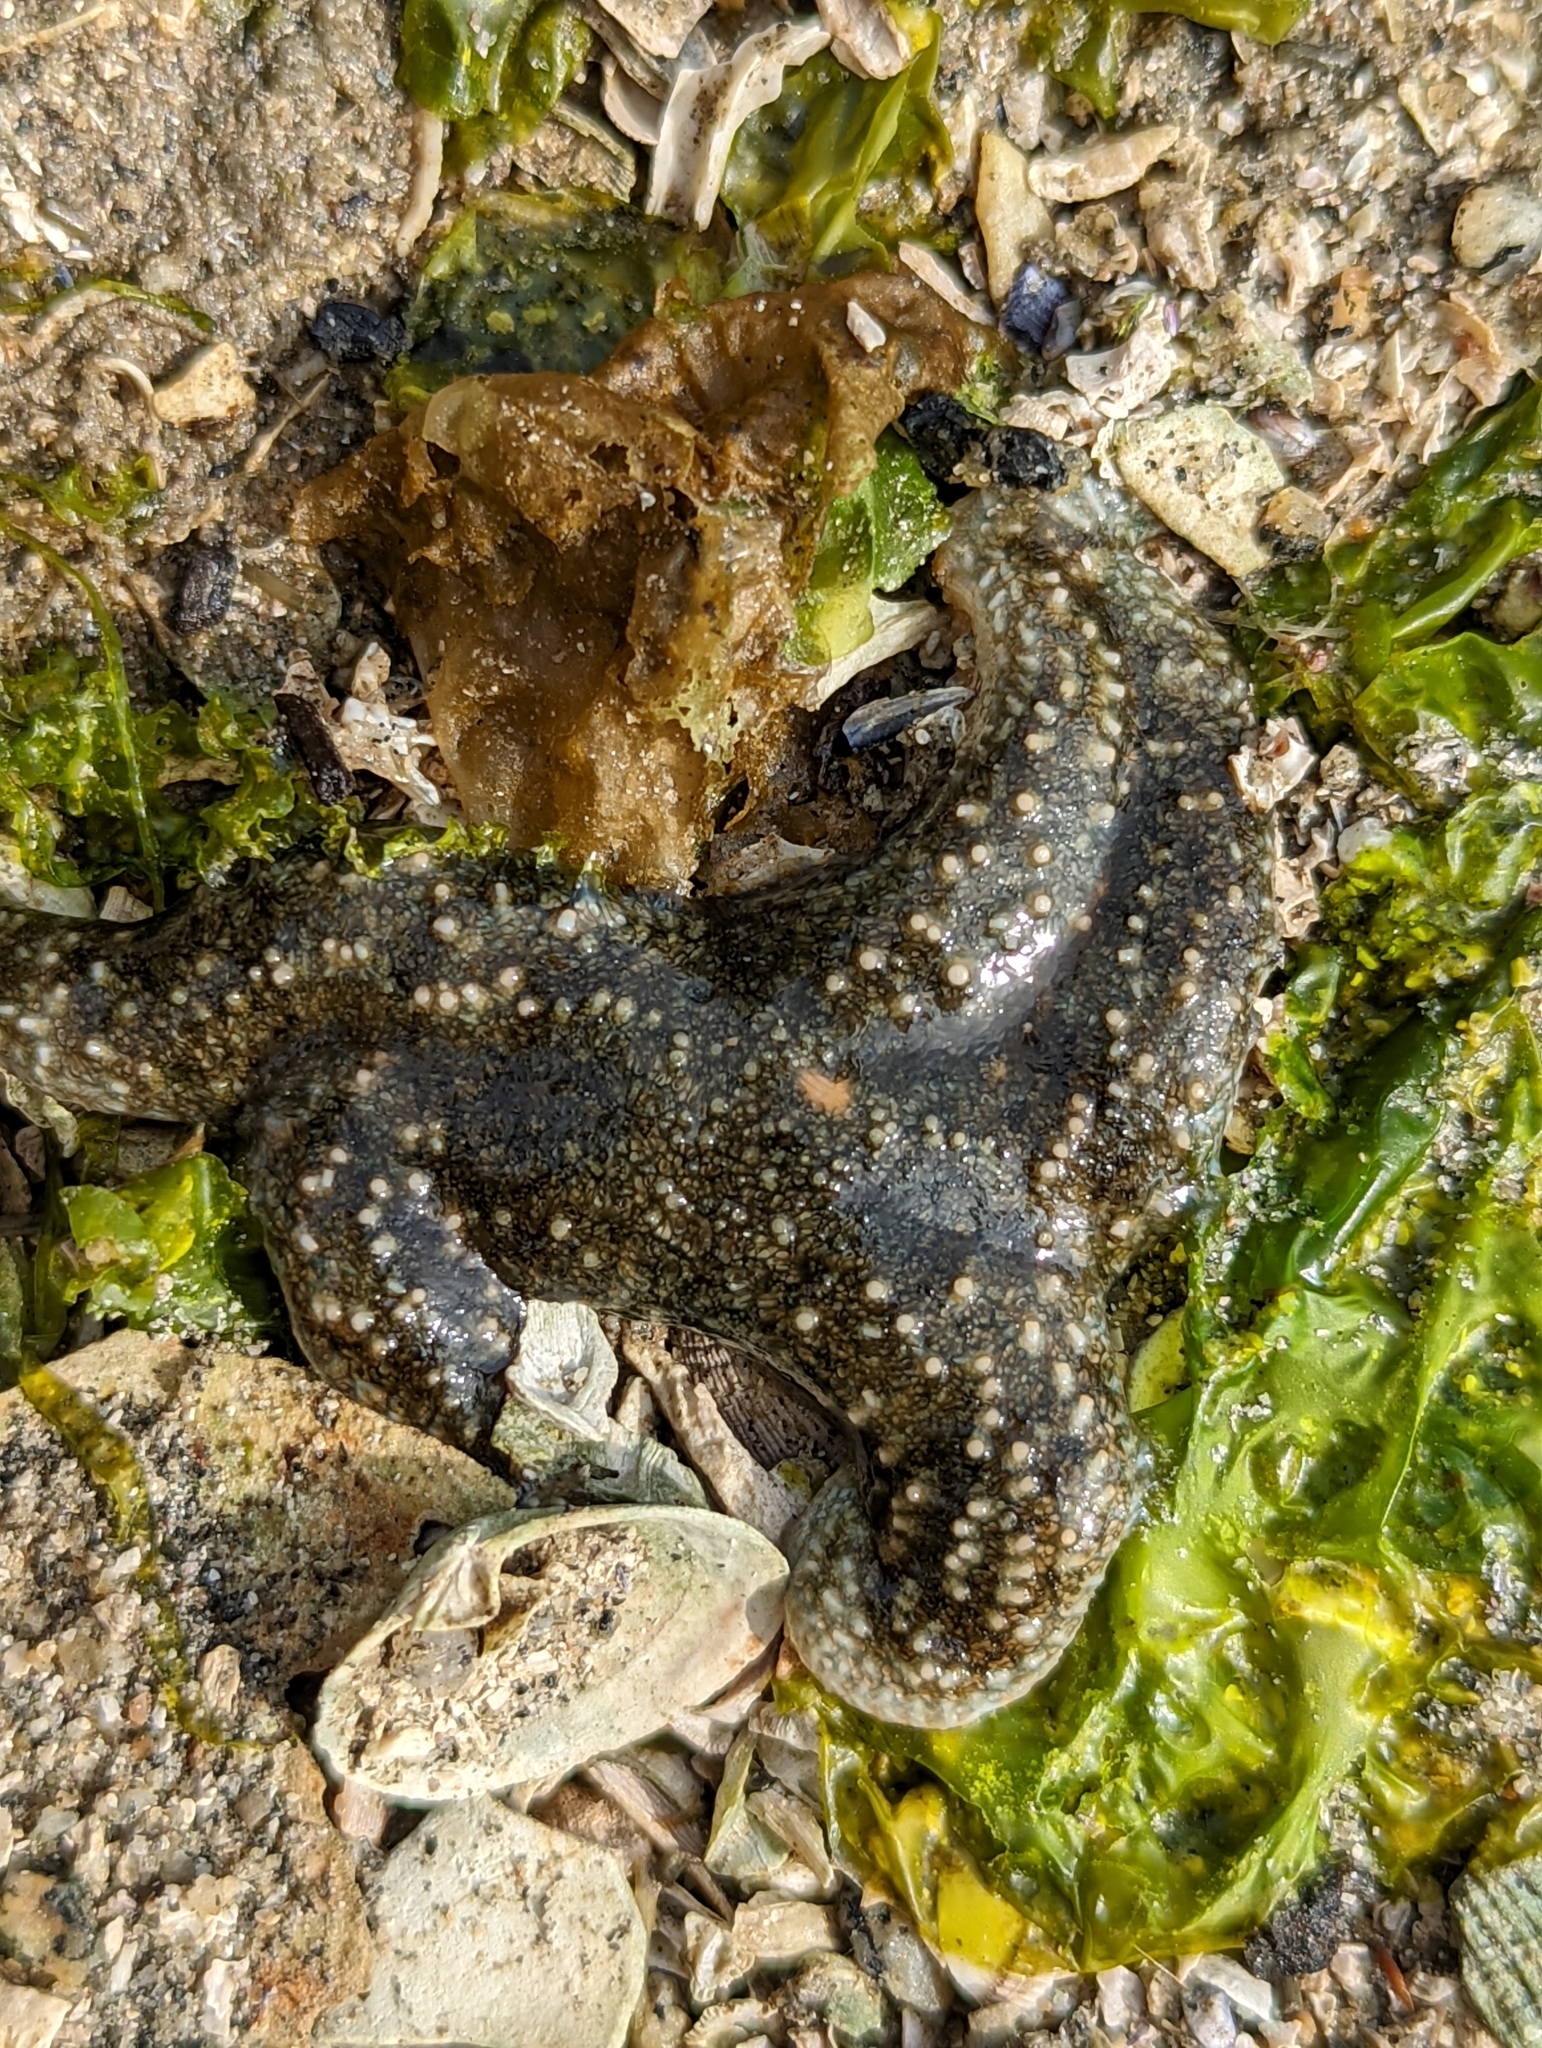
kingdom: Animalia
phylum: Echinodermata
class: Asteroidea
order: Forcipulatida
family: Asteriidae
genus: Evasterias
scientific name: Evasterias troschelii
